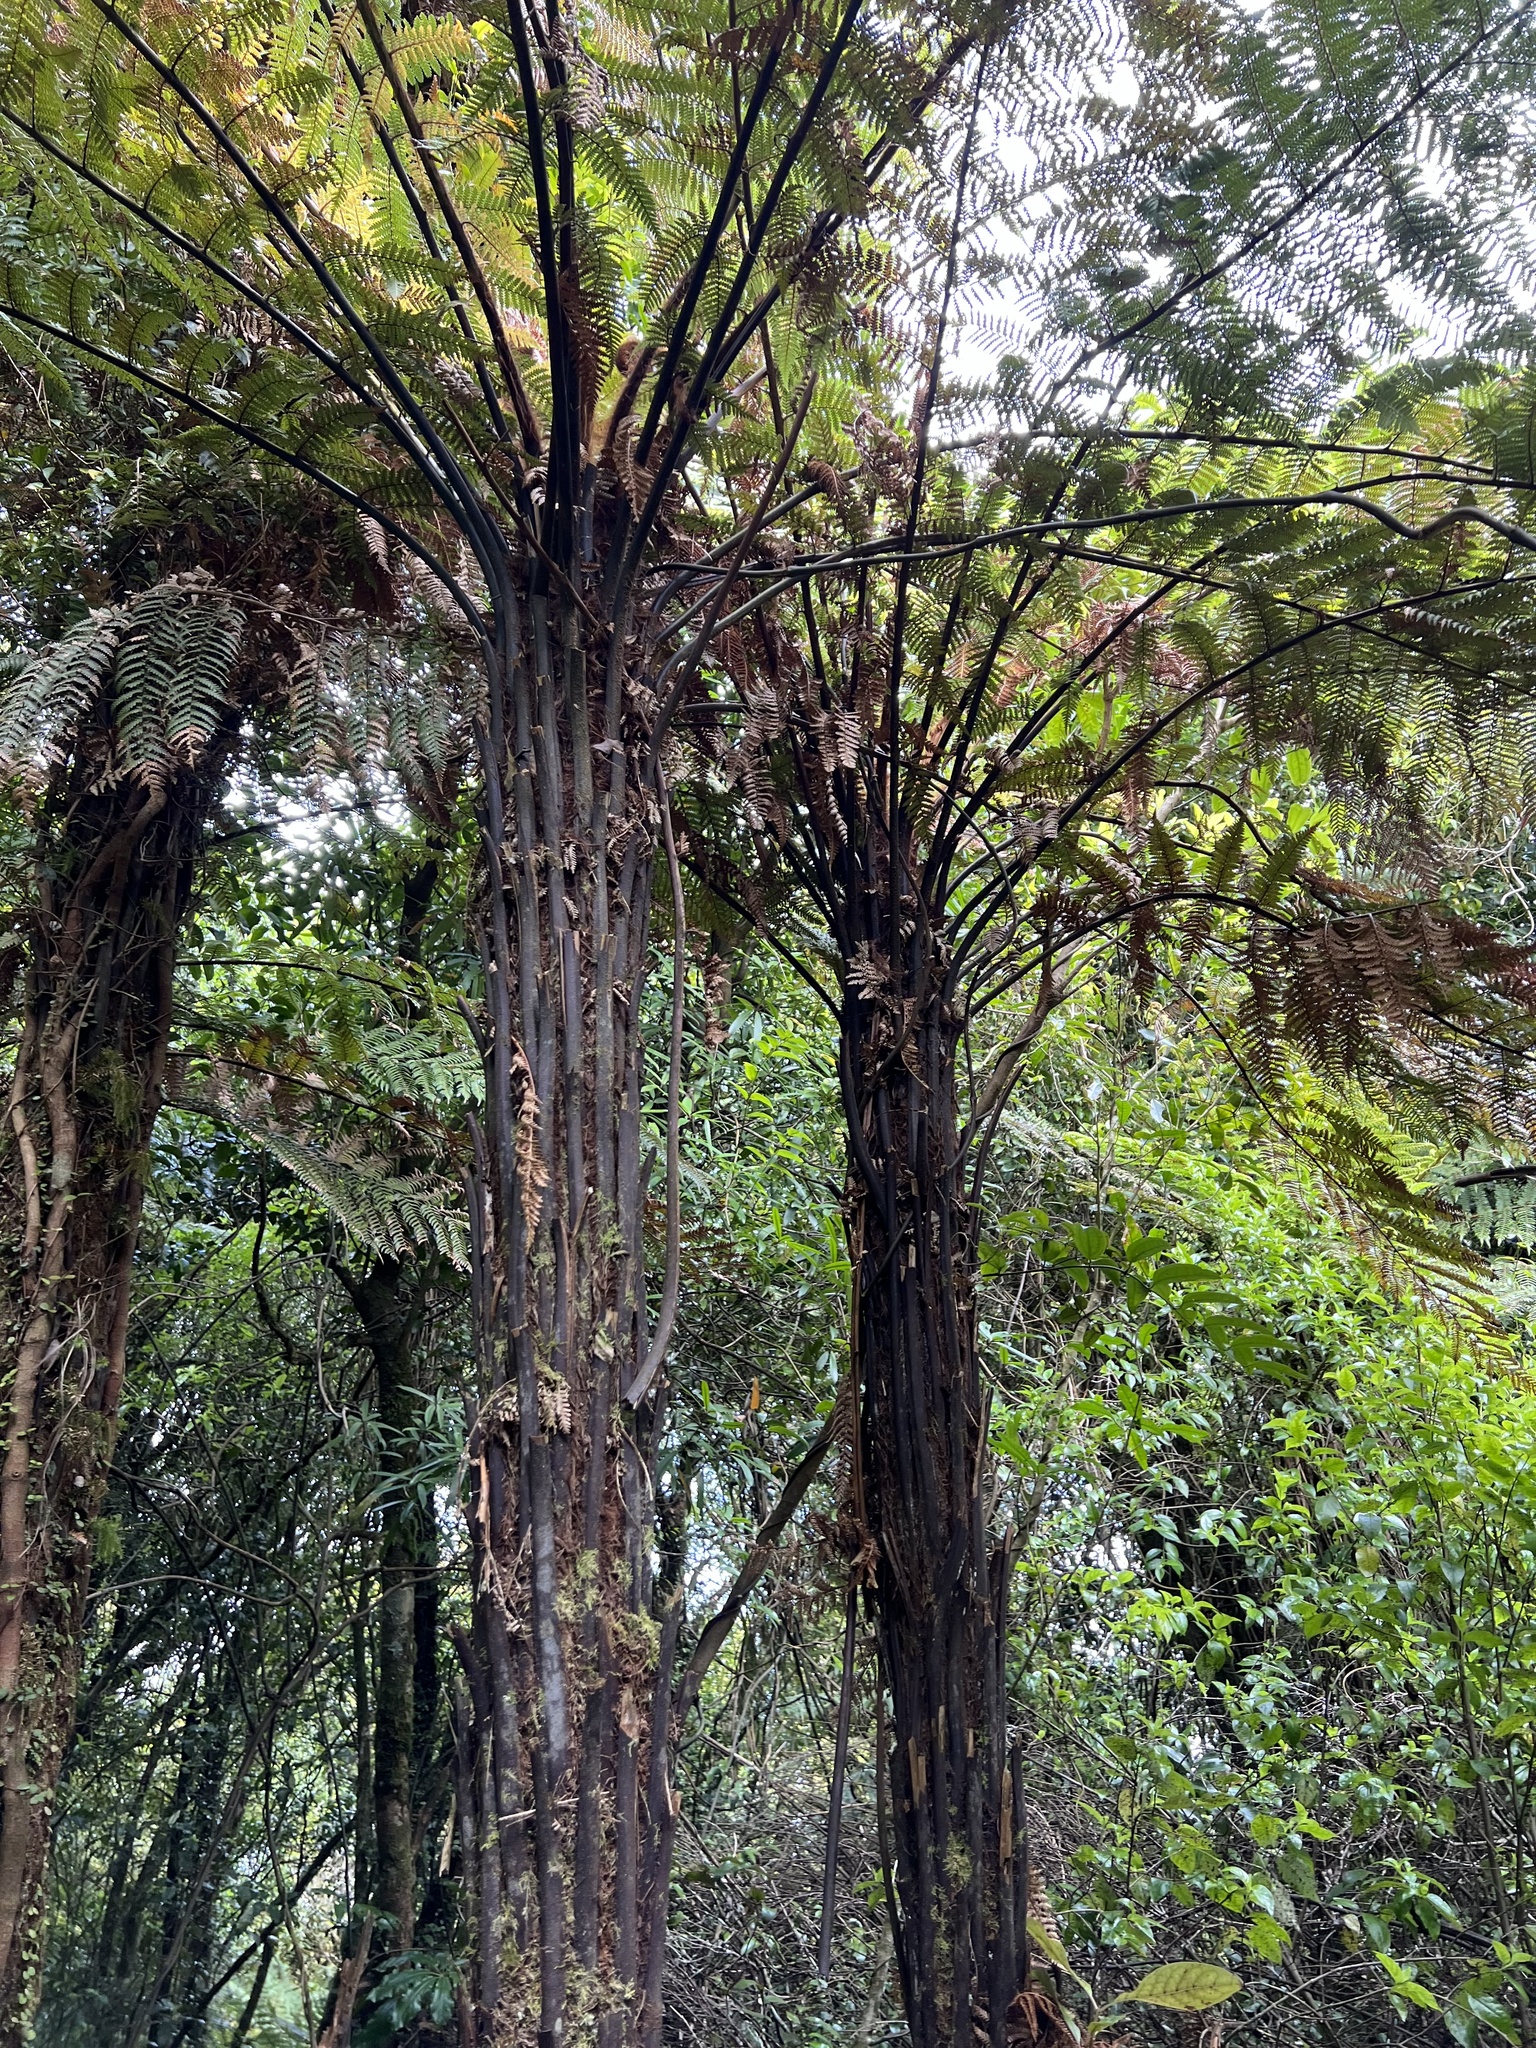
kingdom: Plantae
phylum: Tracheophyta
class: Polypodiopsida
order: Cyatheales
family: Dicksoniaceae
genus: Dicksonia
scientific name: Dicksonia squarrosa
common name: Hard treefern
